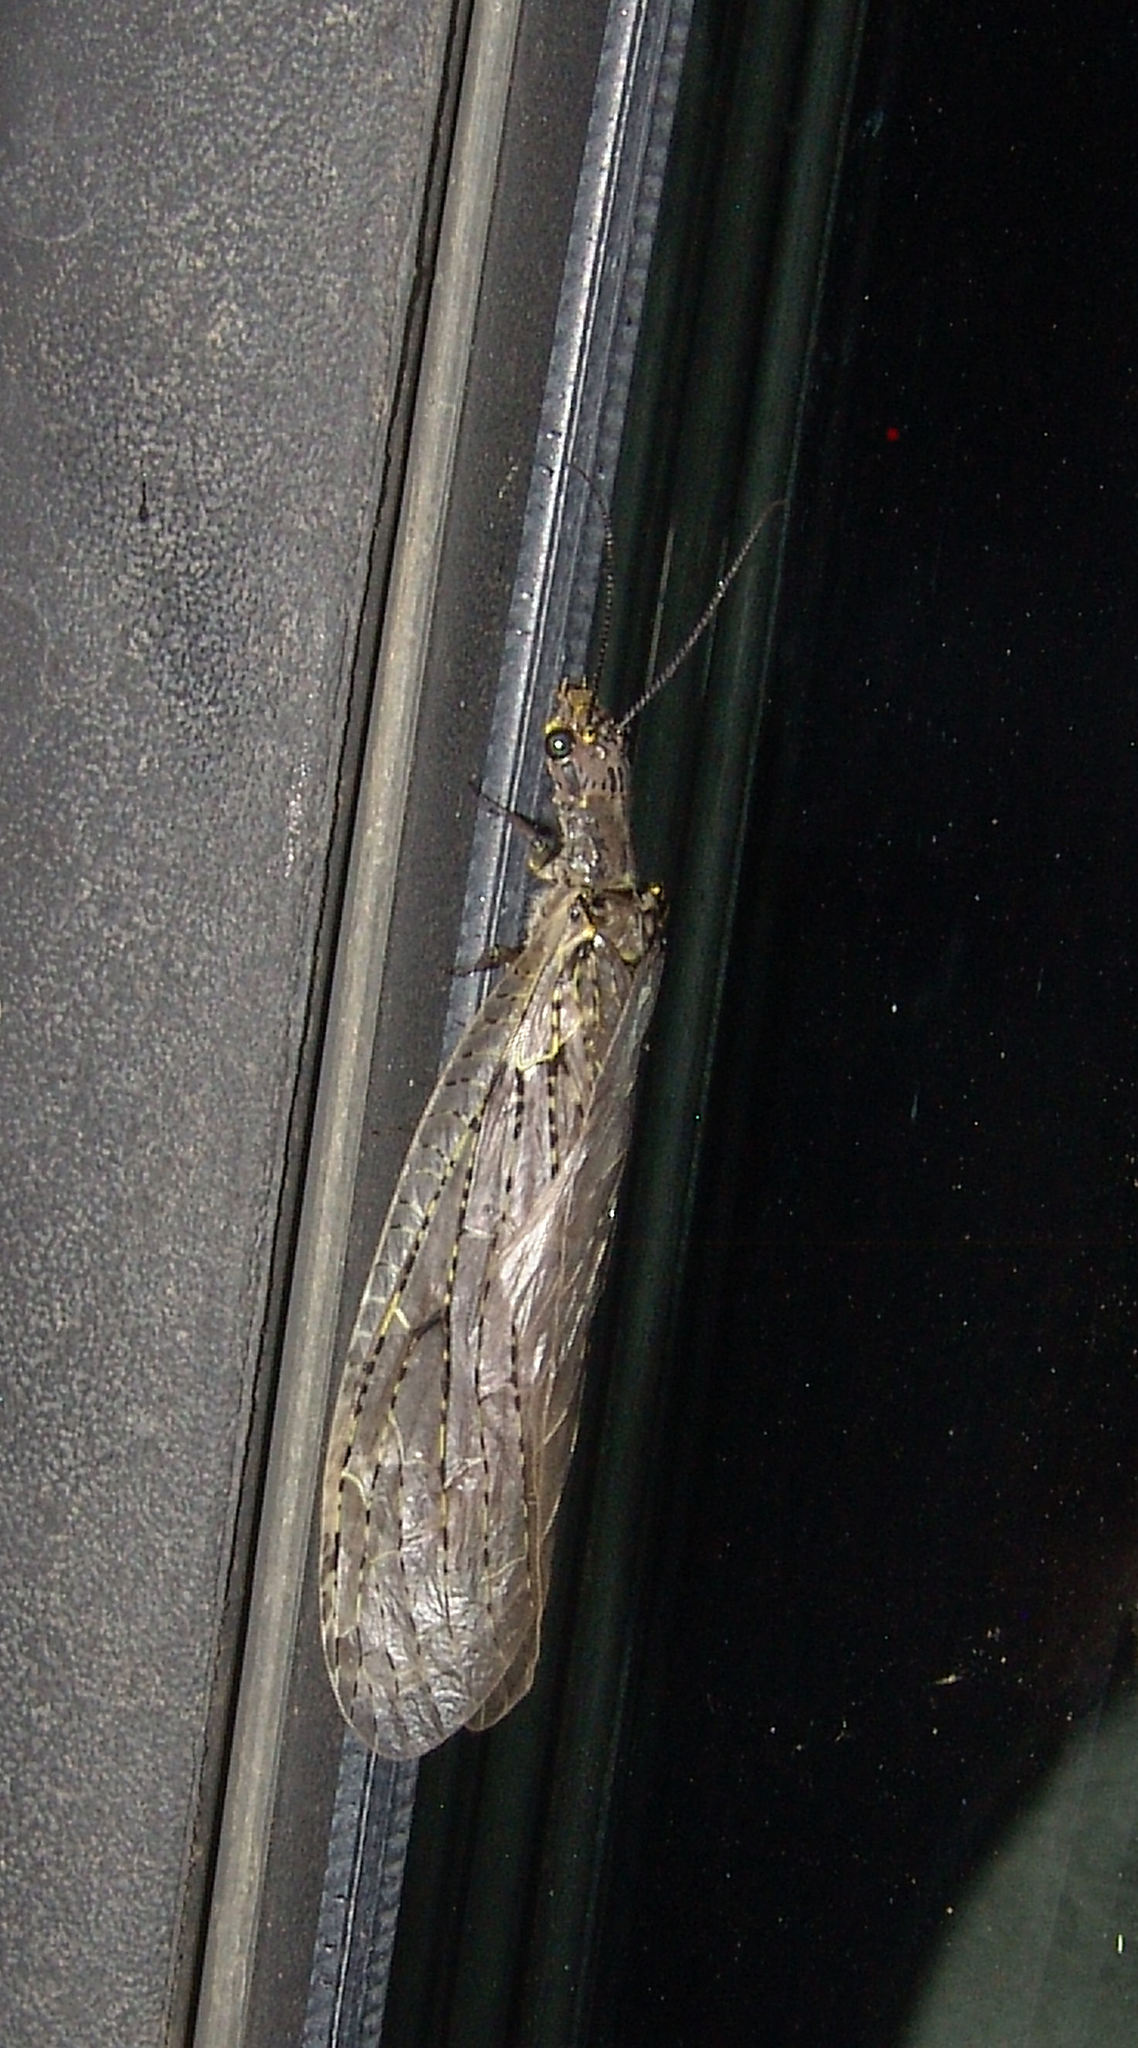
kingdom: Animalia
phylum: Arthropoda
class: Insecta
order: Megaloptera
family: Corydalidae
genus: Chauliodes
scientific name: Chauliodes rastricornis
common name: Spring fishfly
